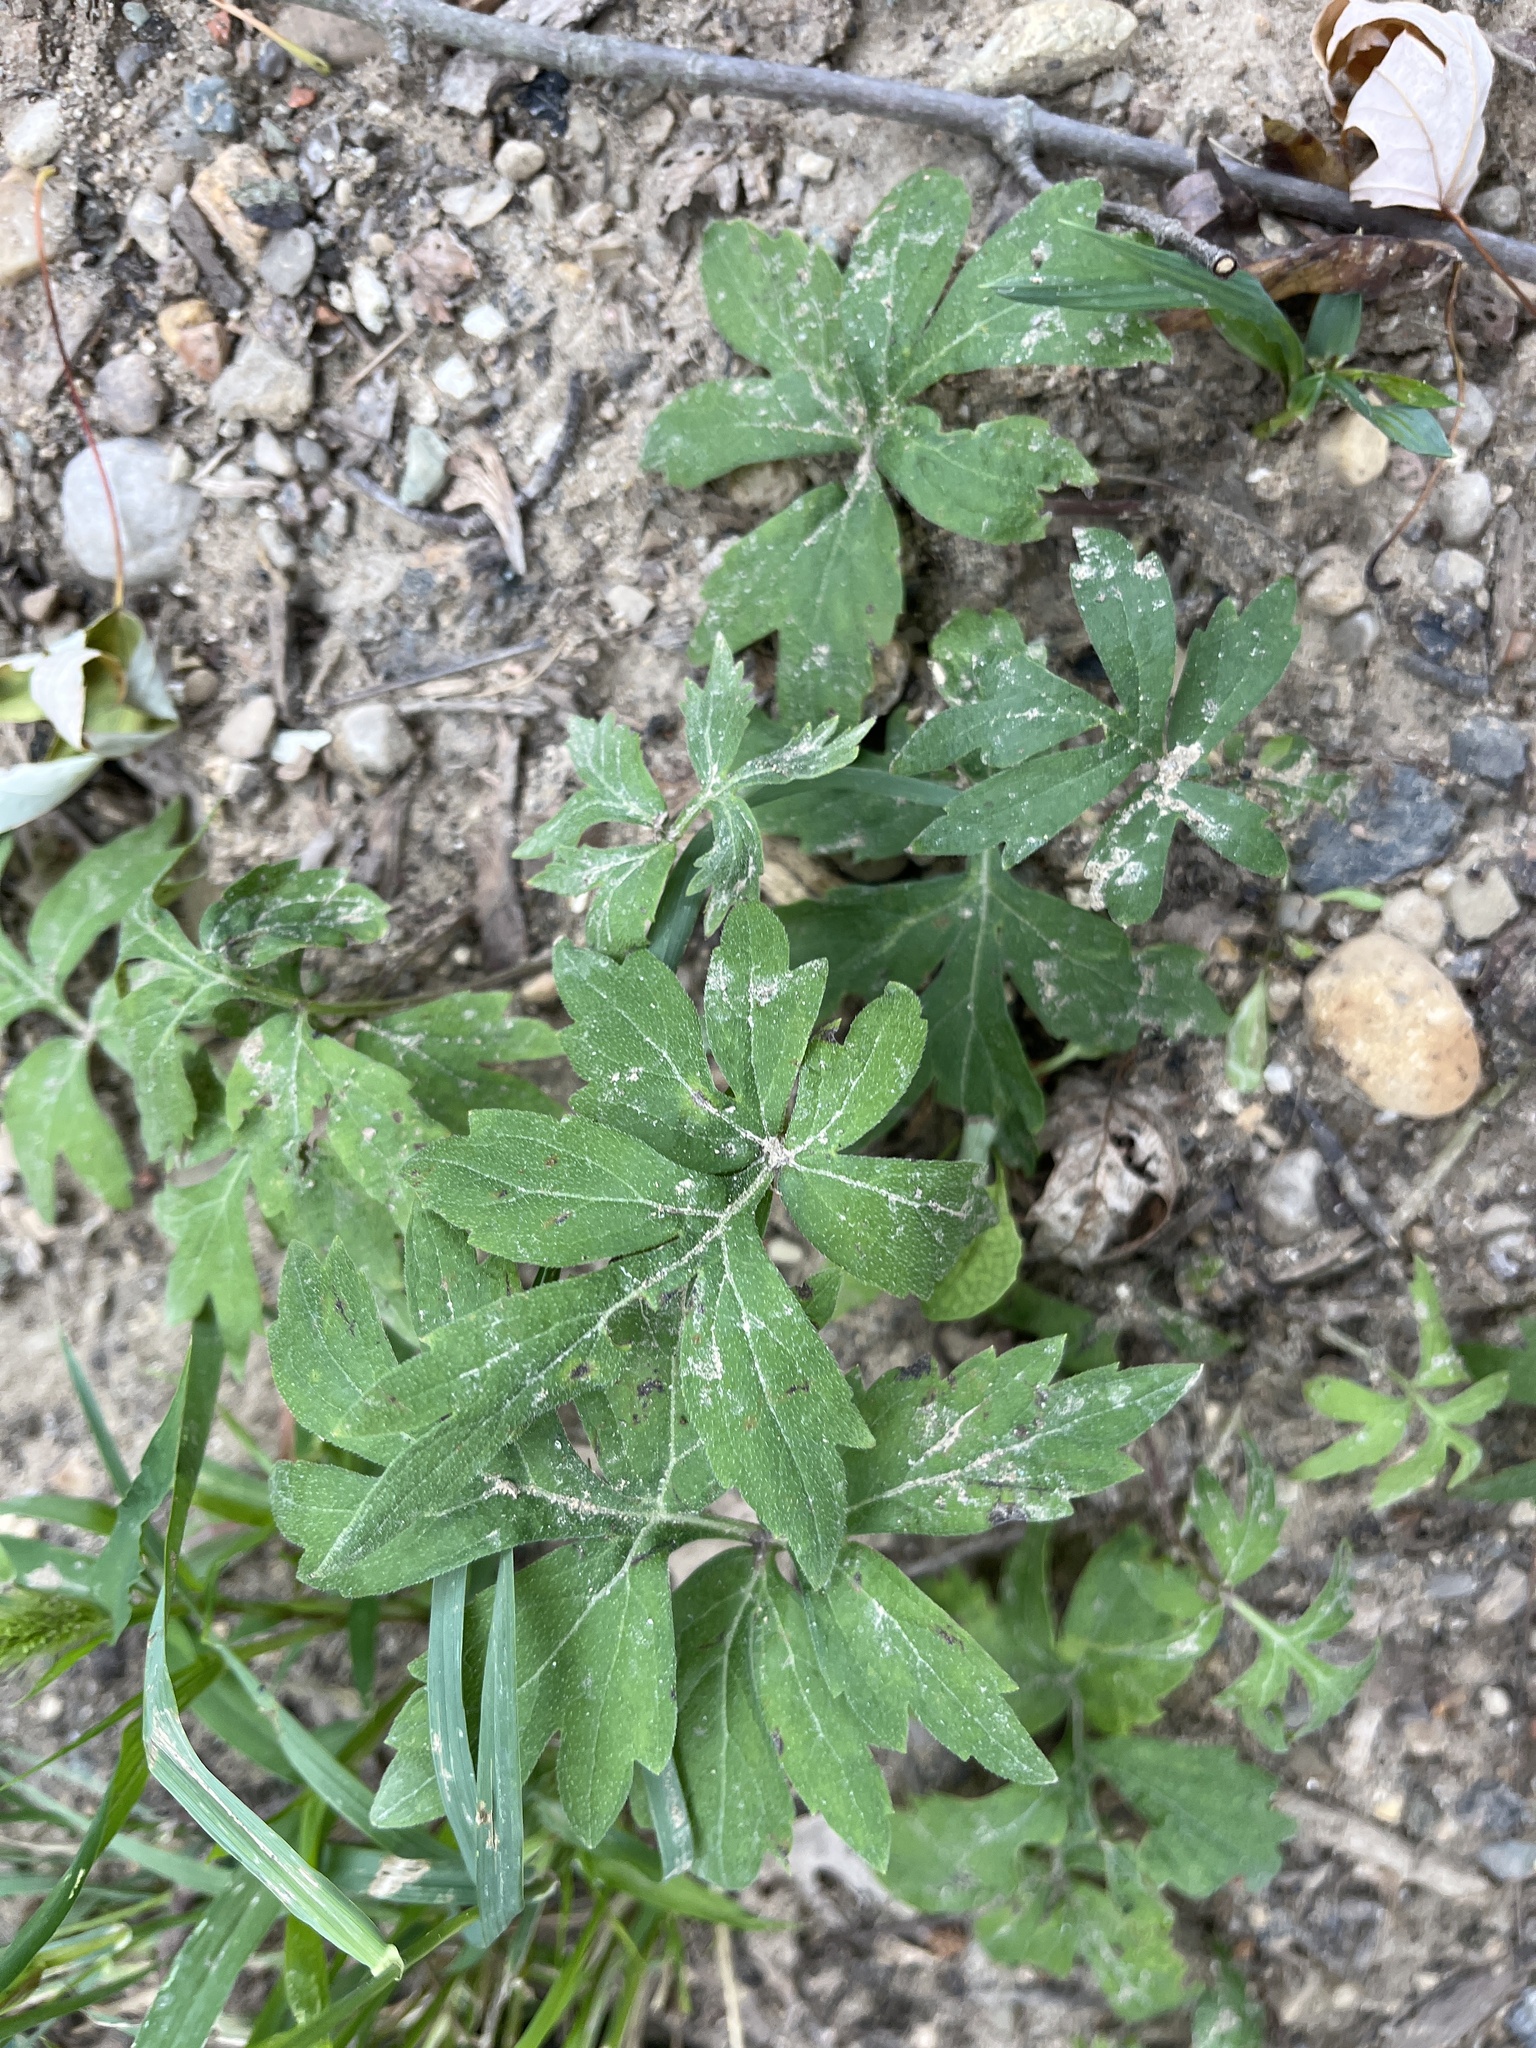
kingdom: Plantae
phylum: Tracheophyta
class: Magnoliopsida
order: Boraginales
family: Hydrophyllaceae
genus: Hydrophyllum
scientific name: Hydrophyllum virginianum
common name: Virginia waterleaf
